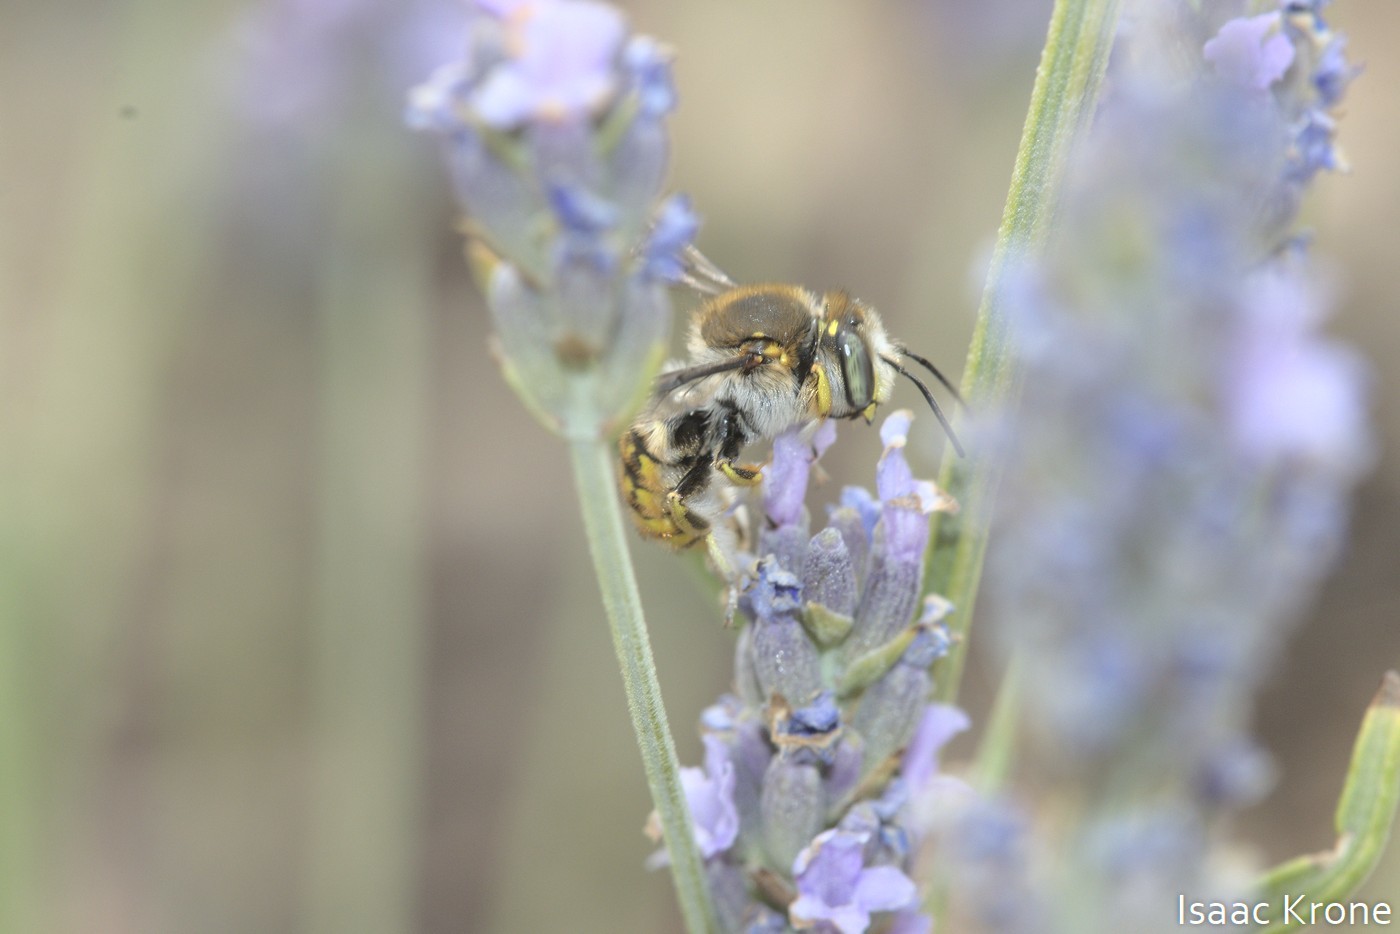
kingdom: Animalia
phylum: Arthropoda
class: Insecta
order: Hymenoptera
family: Megachilidae
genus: Anthidium
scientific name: Anthidium manicatum
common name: Wool carder bee
